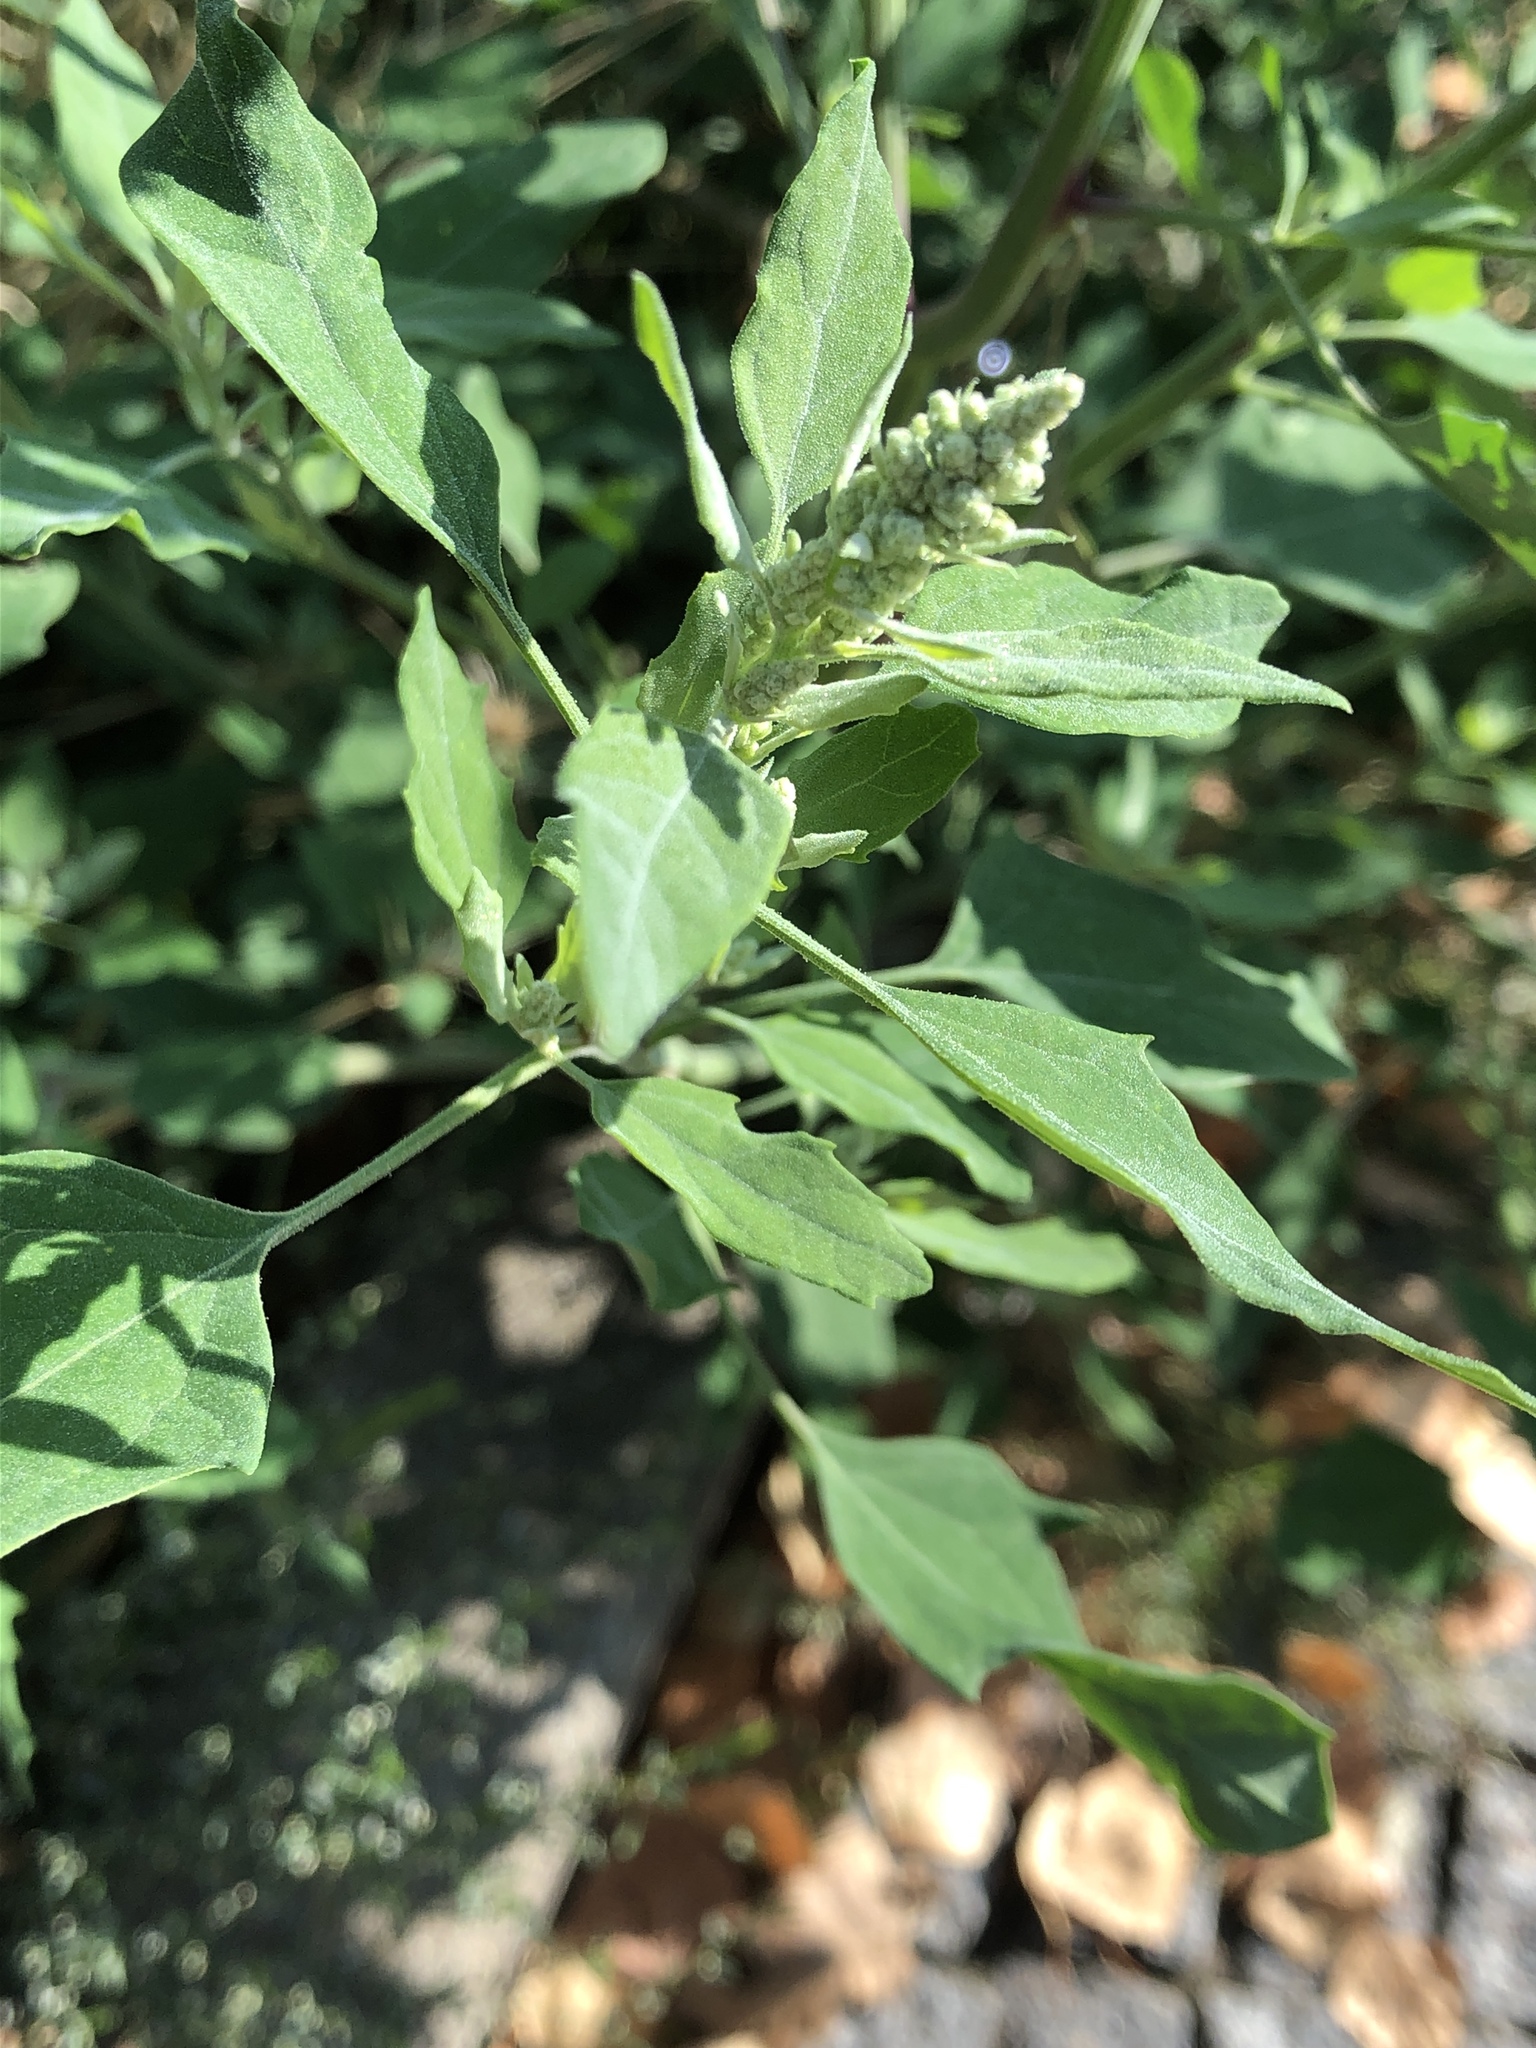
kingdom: Plantae
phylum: Tracheophyta
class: Magnoliopsida
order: Caryophyllales
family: Amaranthaceae
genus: Chenopodium
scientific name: Chenopodium album
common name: Fat-hen
